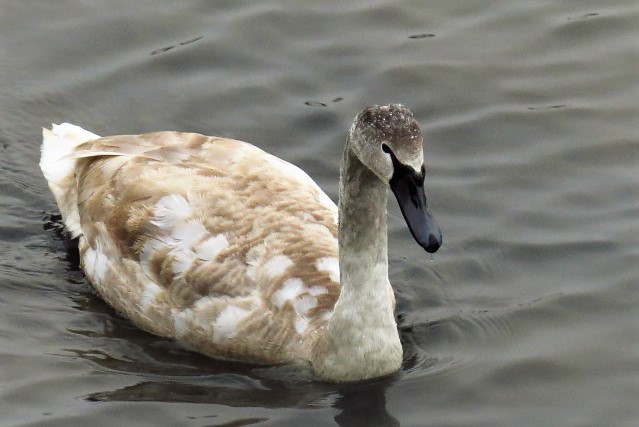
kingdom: Animalia
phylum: Chordata
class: Aves
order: Anseriformes
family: Anatidae
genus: Cygnus
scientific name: Cygnus olor
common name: Mute swan
